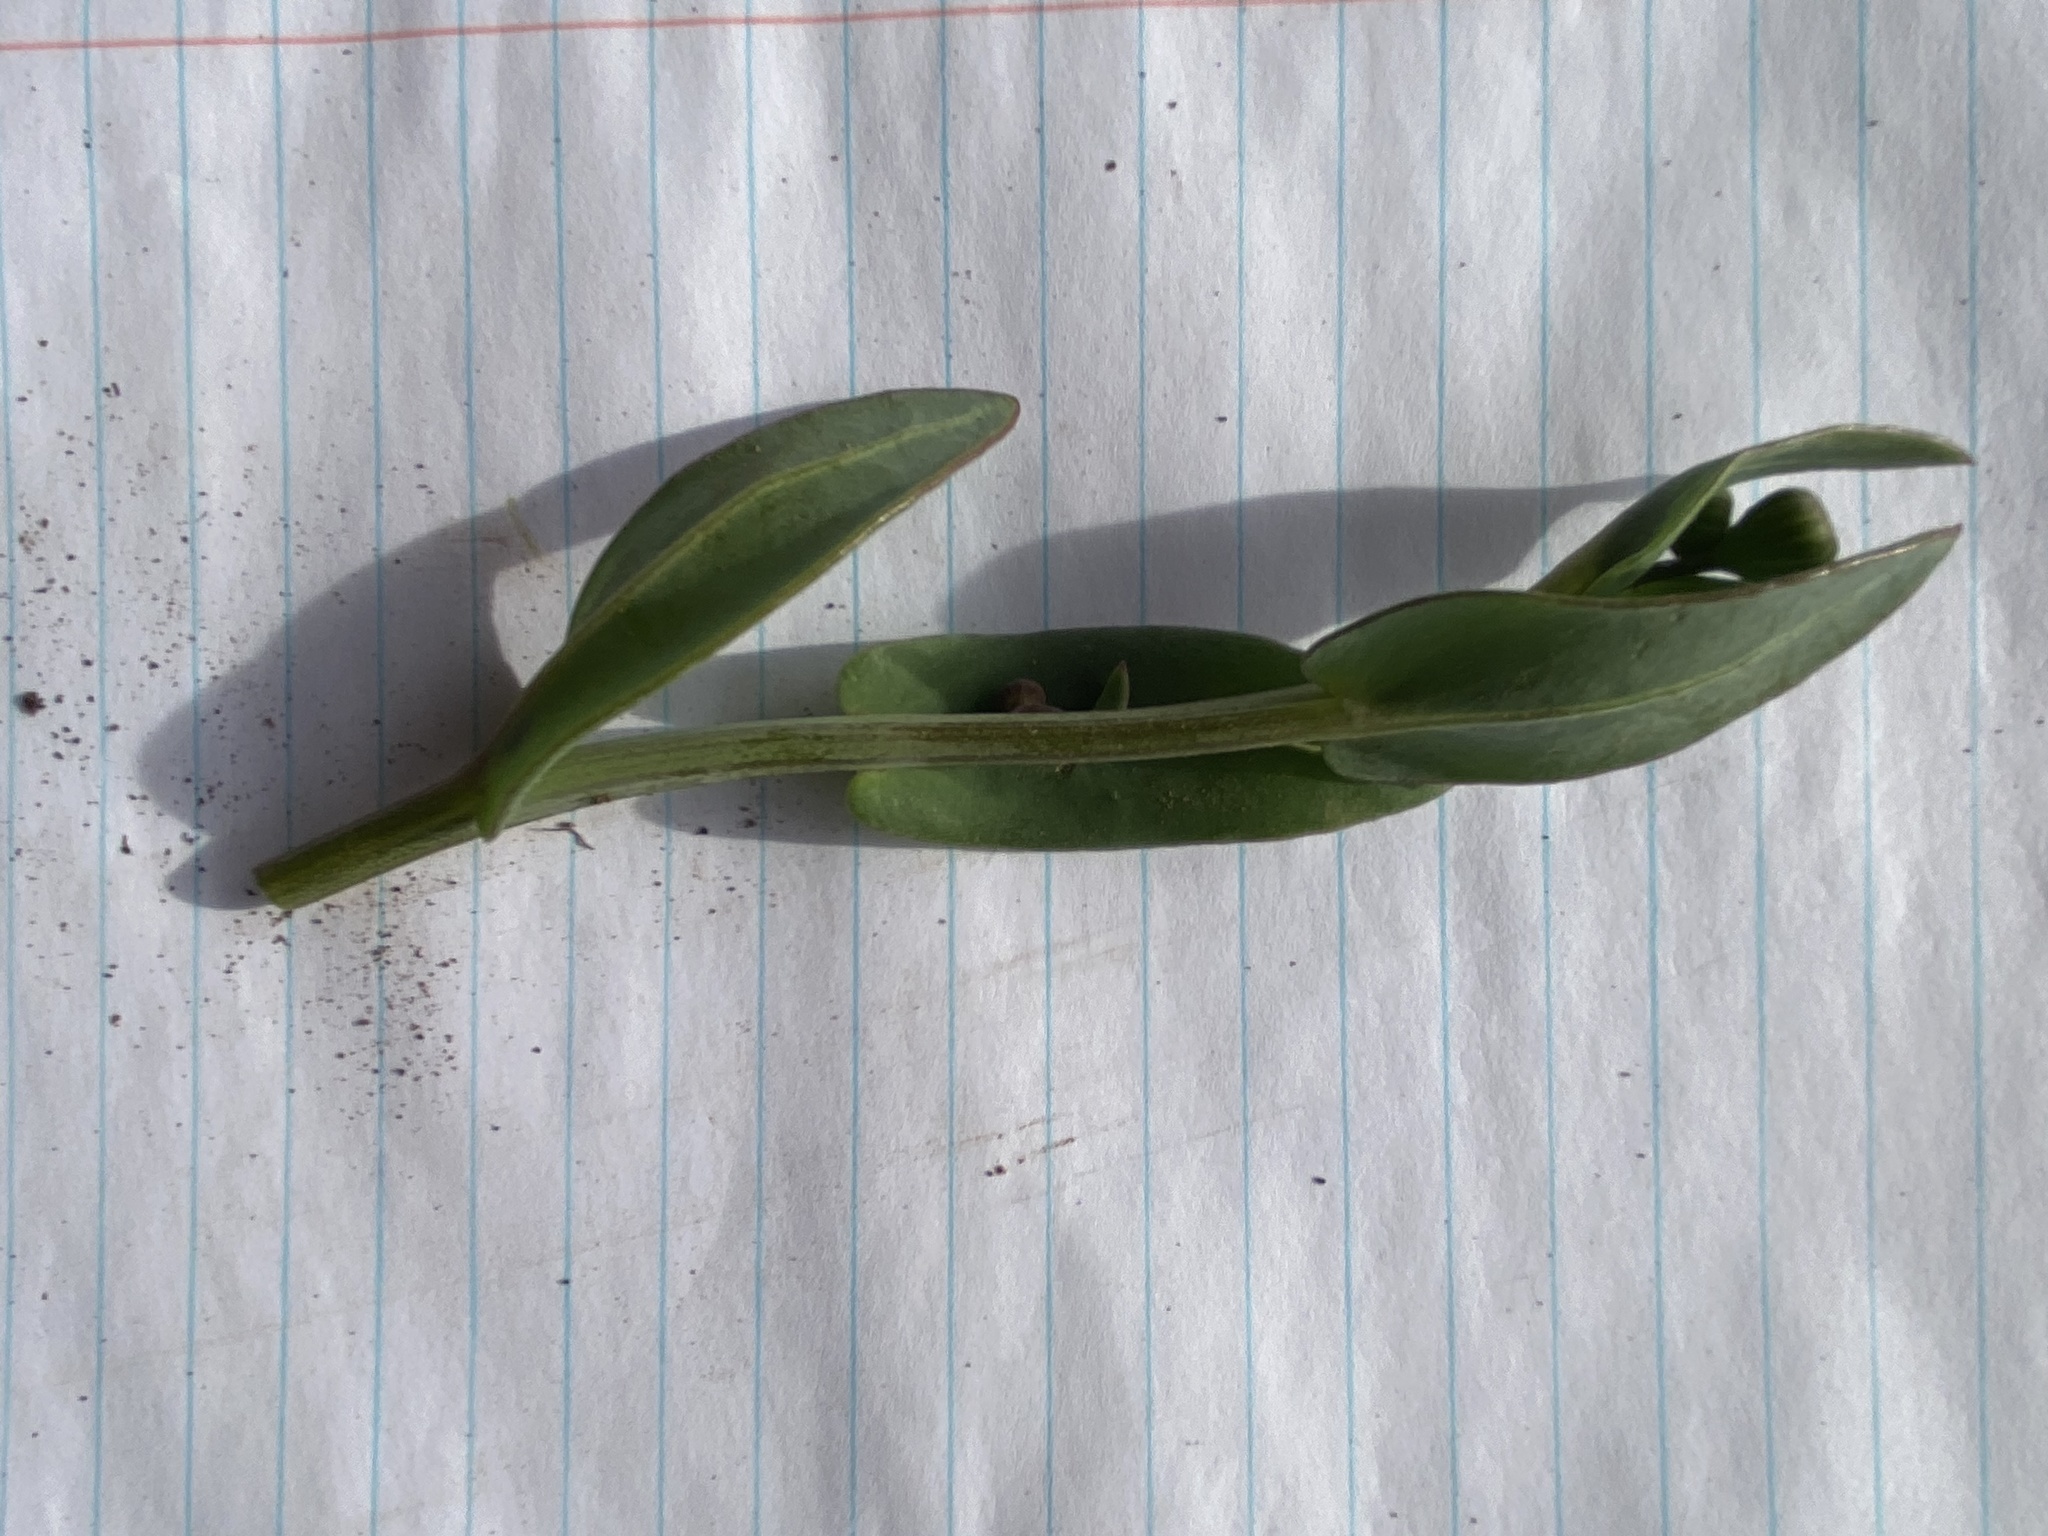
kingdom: Plantae
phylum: Tracheophyta
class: Magnoliopsida
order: Asterales
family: Asteraceae
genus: Othonna
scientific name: Othonna gymnodiscus
